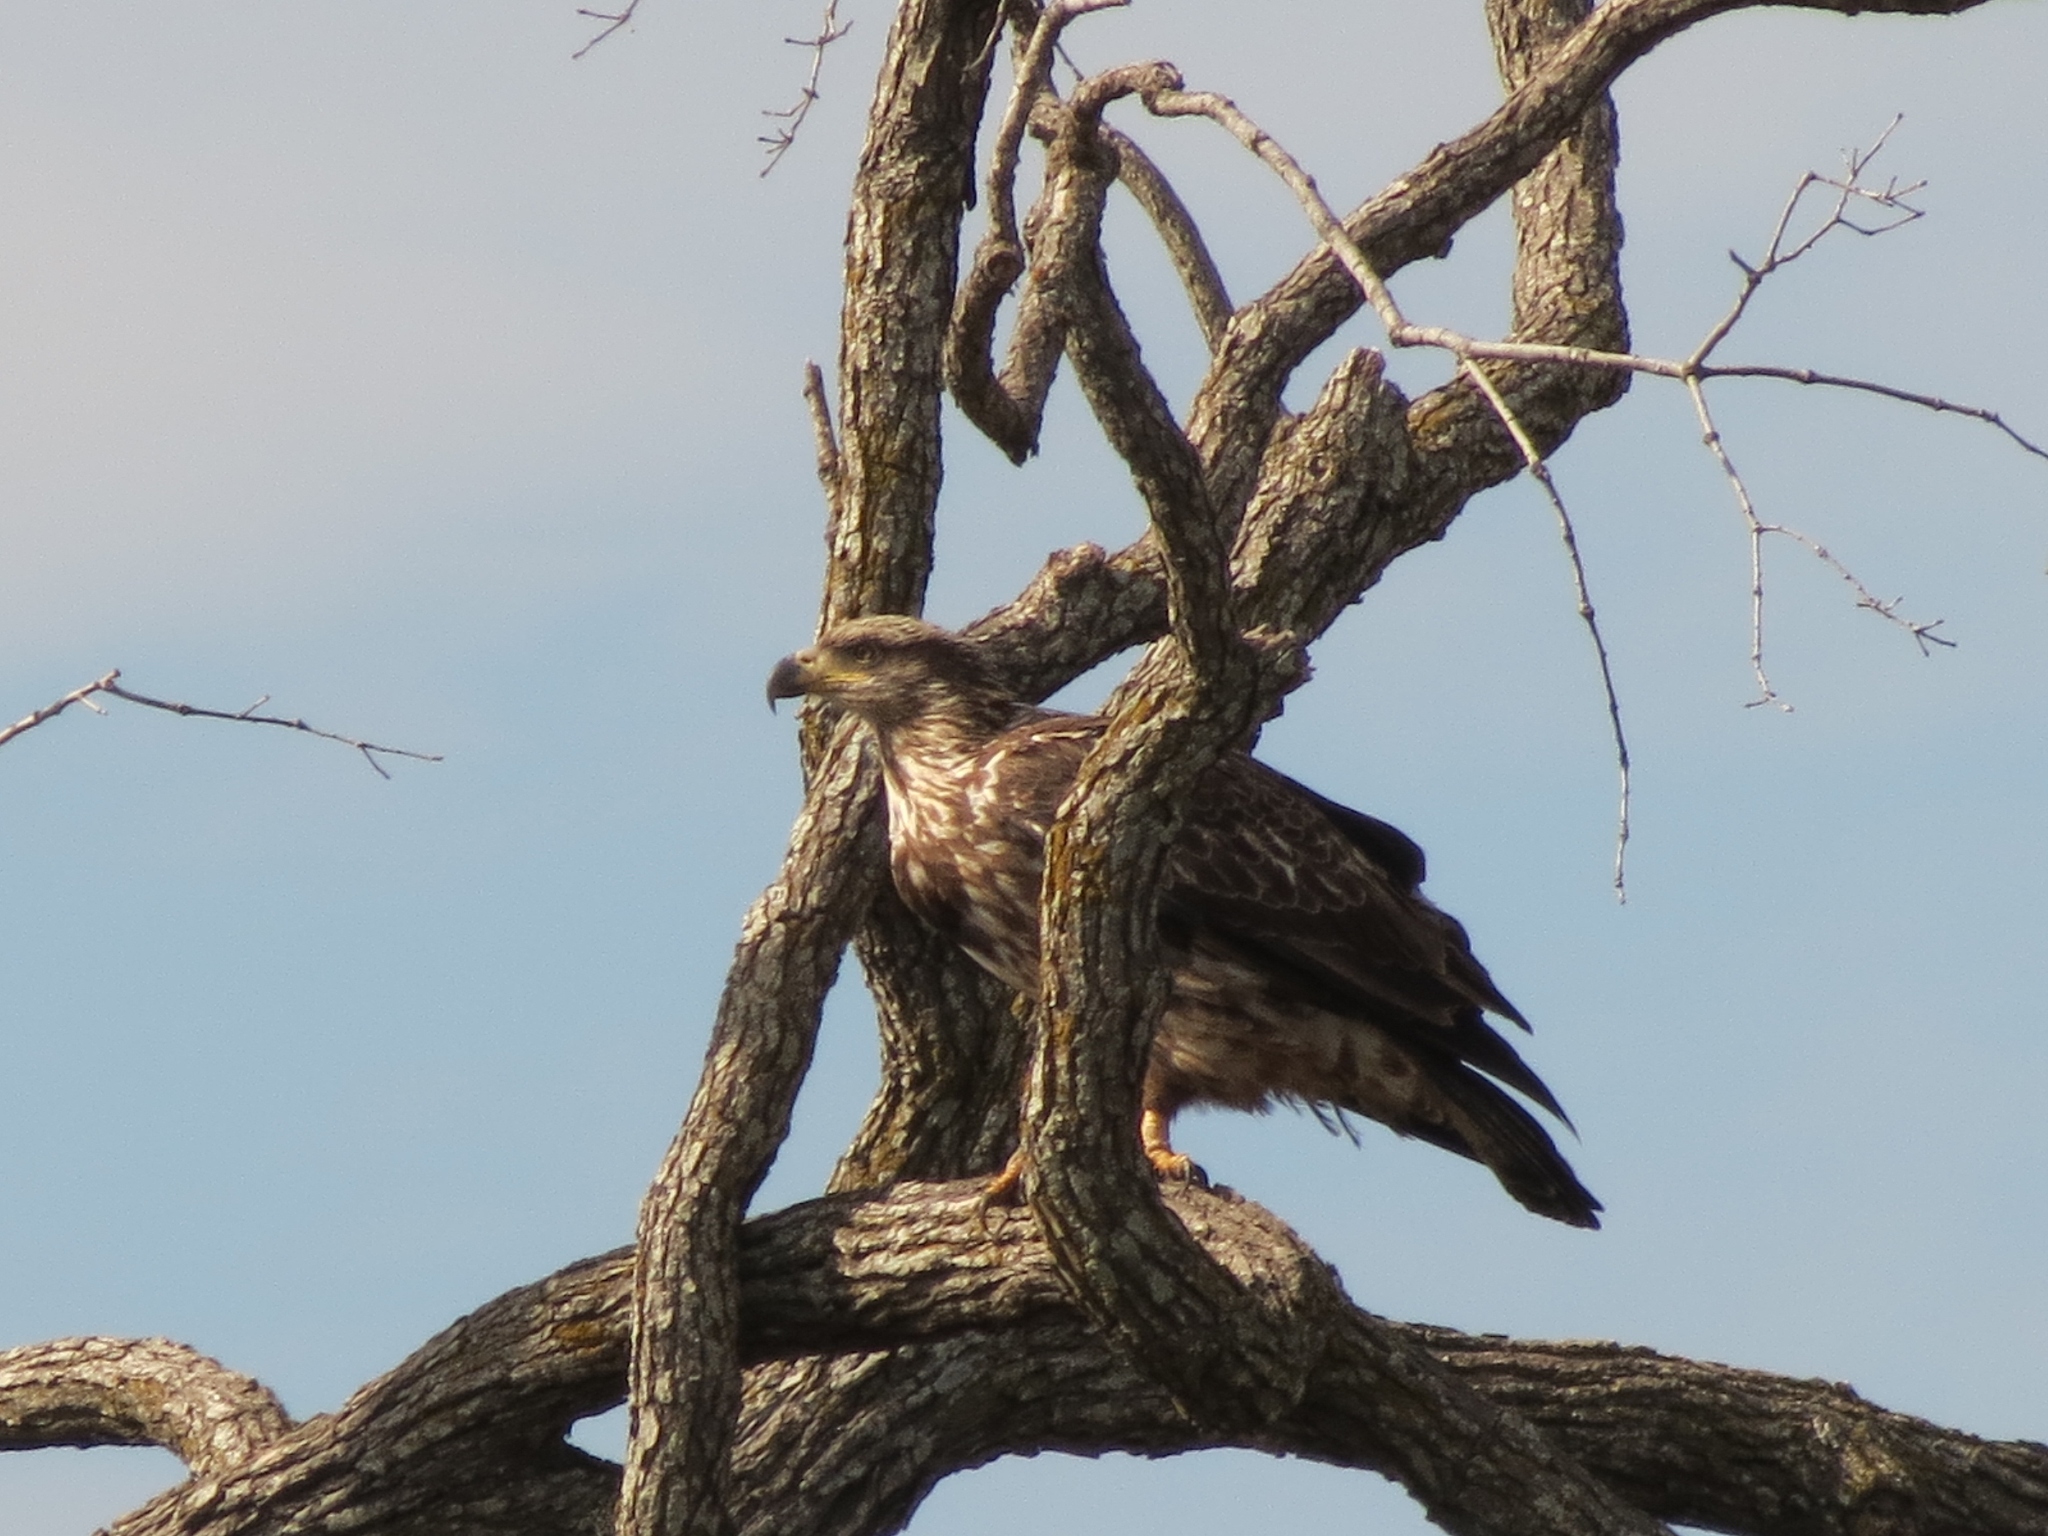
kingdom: Animalia
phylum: Chordata
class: Aves
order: Accipitriformes
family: Accipitridae
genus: Haliaeetus
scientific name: Haliaeetus leucocephalus
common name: Bald eagle
